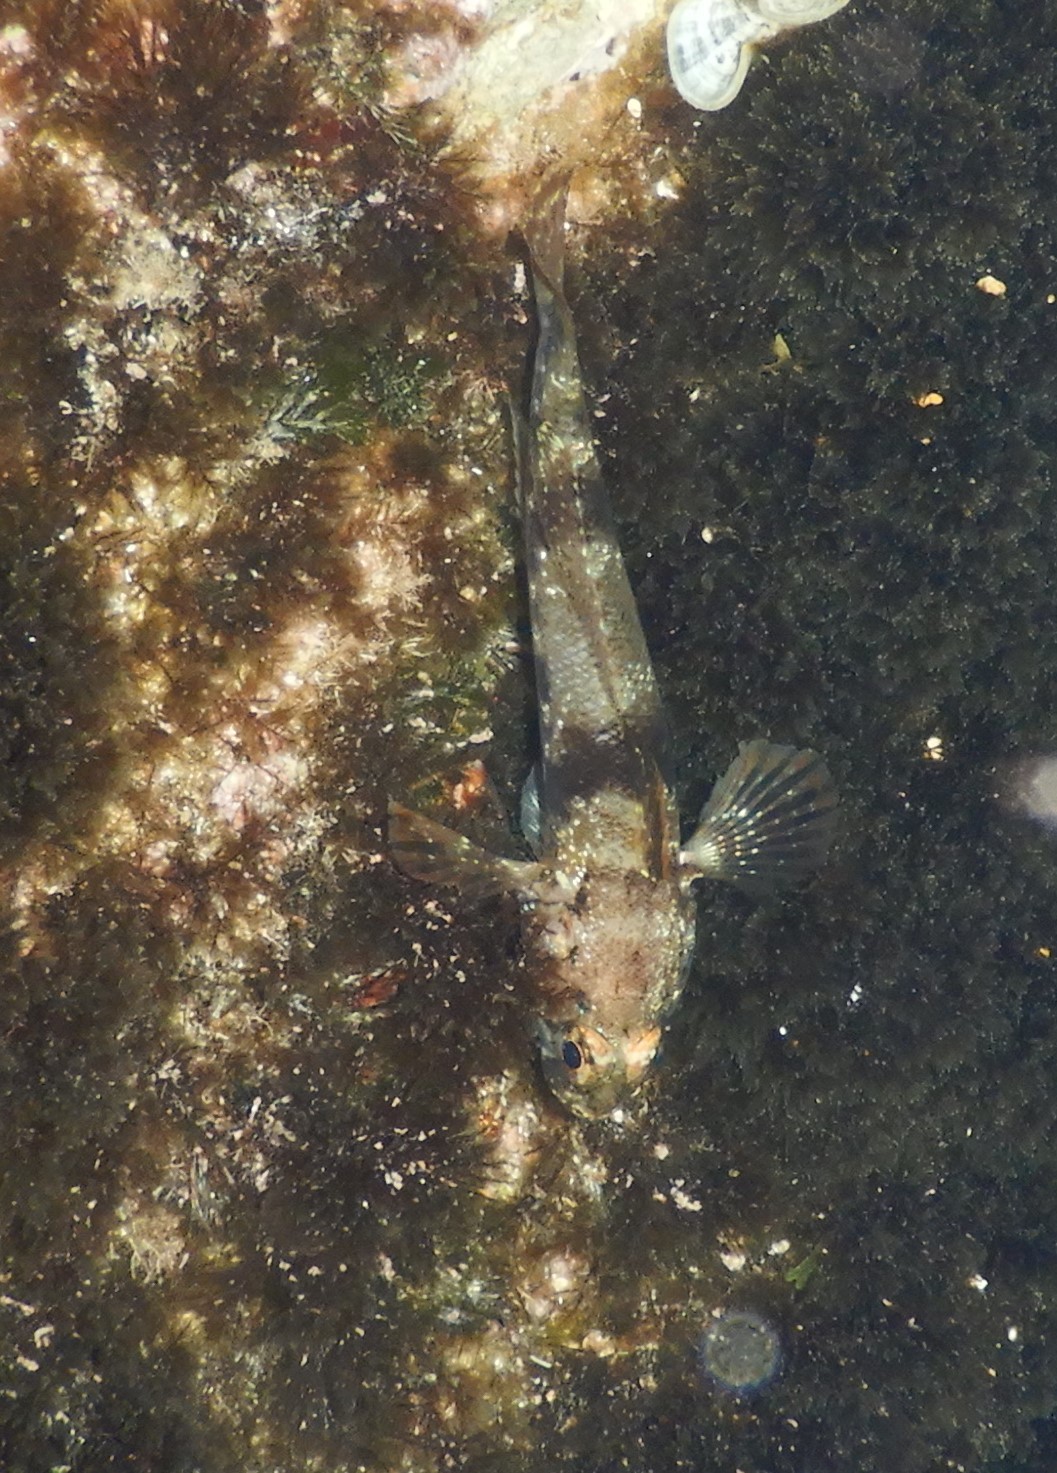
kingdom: Animalia
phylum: Chordata
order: Perciformes
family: Gobiidae
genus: Gobius
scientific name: Gobius paganellus
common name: Rock goby
